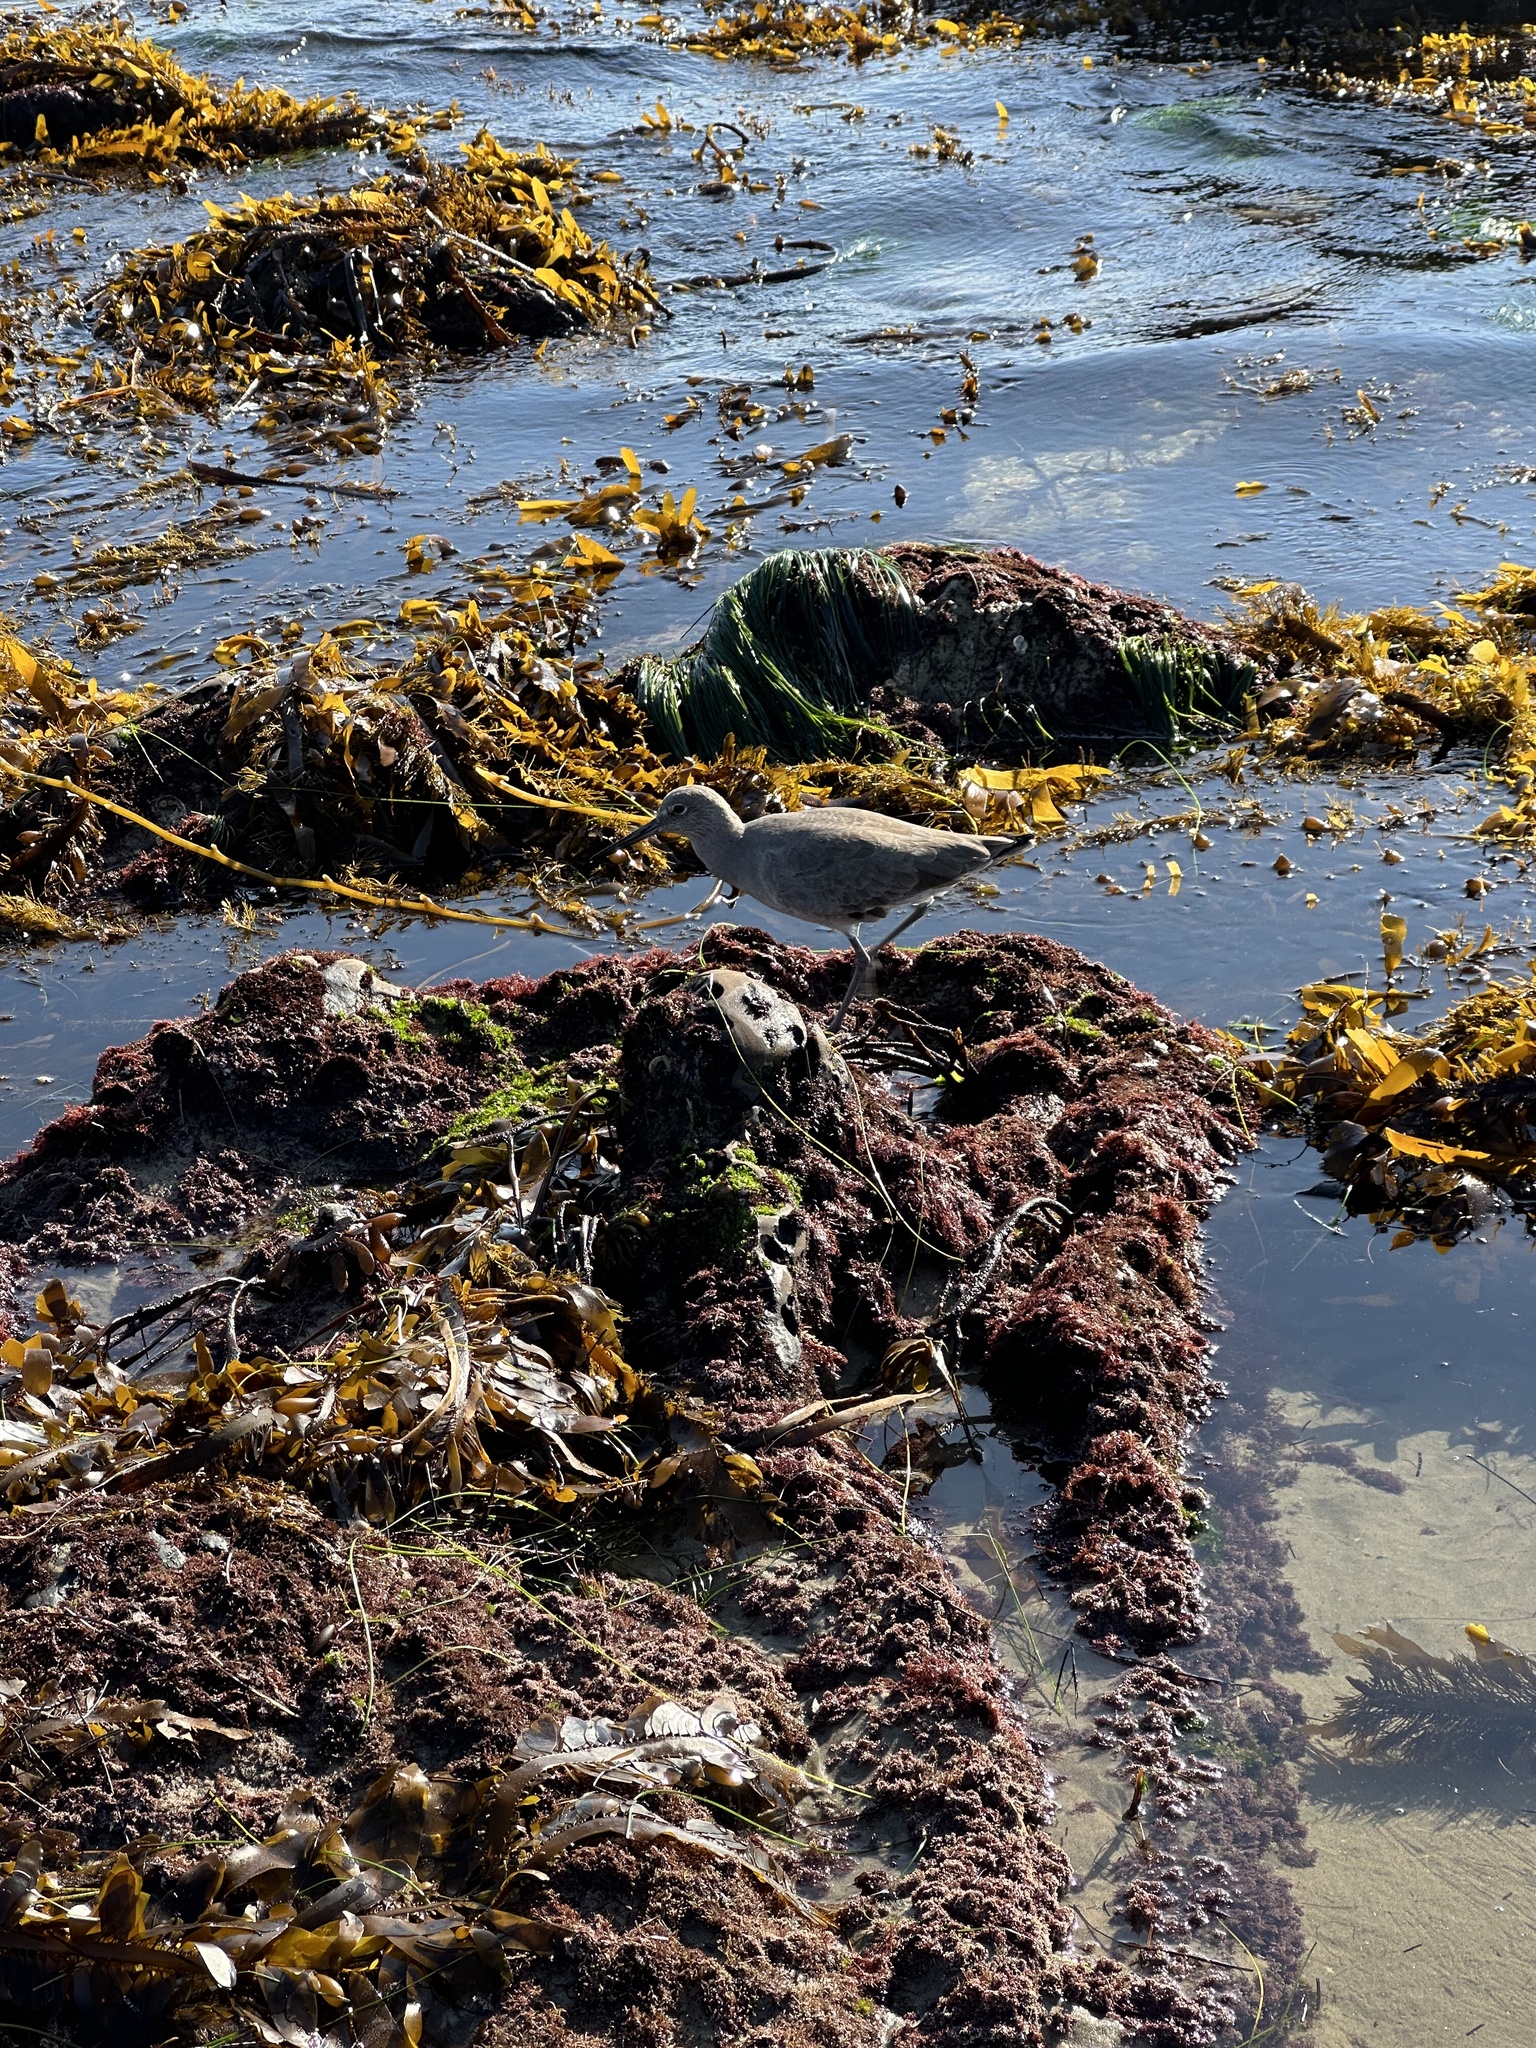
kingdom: Animalia
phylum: Chordata
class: Aves
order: Charadriiformes
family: Scolopacidae
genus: Tringa
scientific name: Tringa semipalmata
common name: Willet
